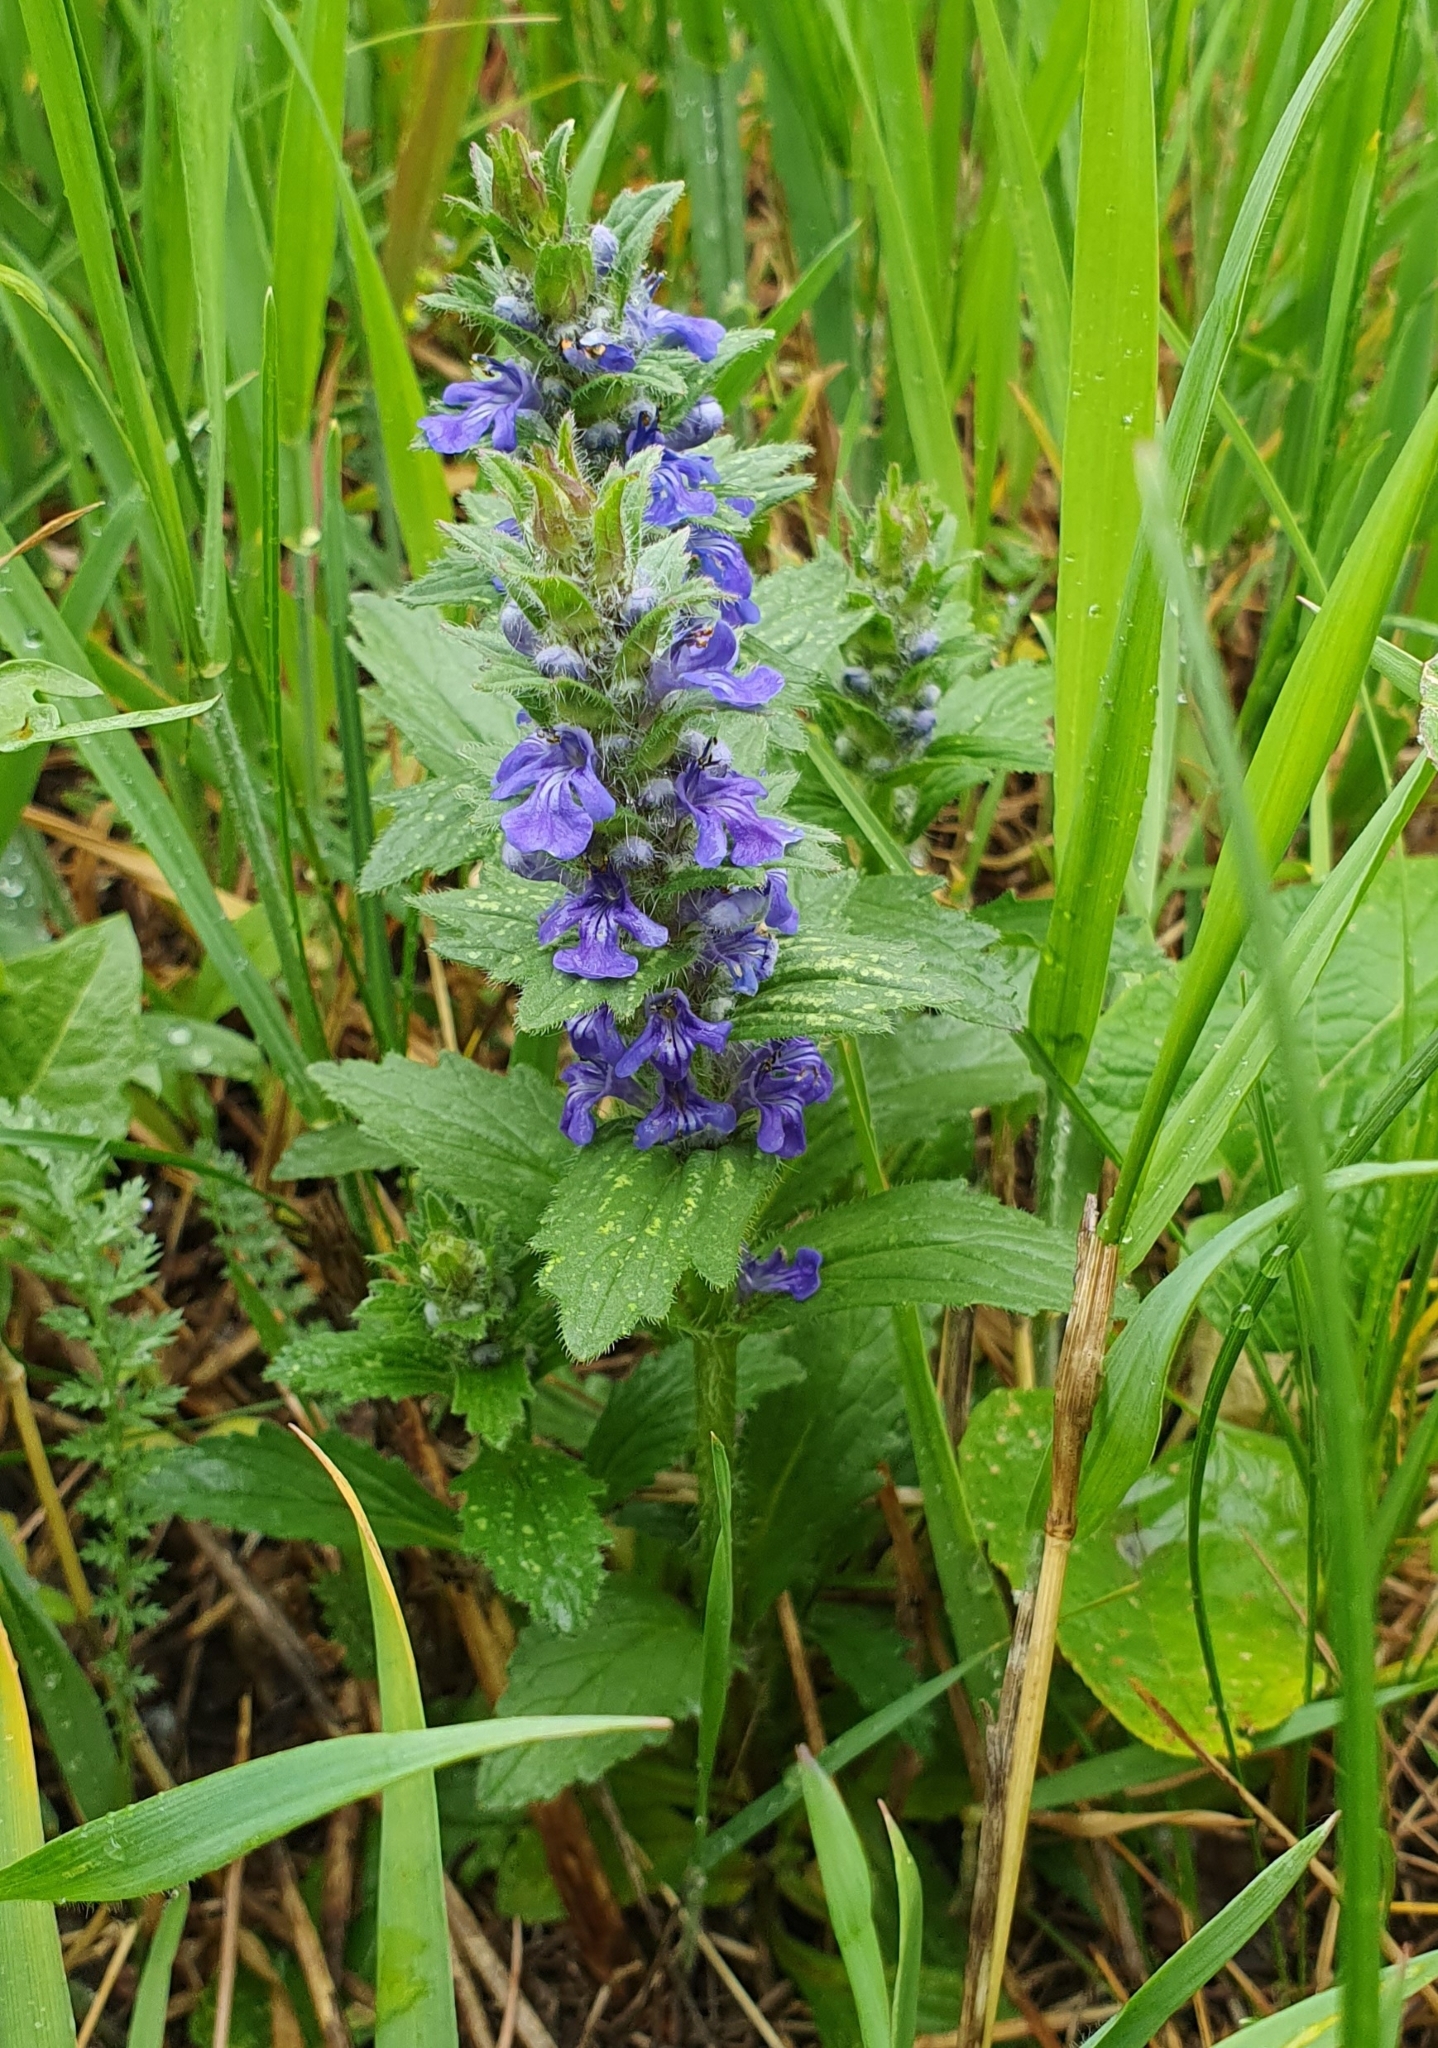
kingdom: Plantae
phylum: Tracheophyta
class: Magnoliopsida
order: Lamiales
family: Lamiaceae
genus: Ajuga
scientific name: Ajuga genevensis
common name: Blue bugle
